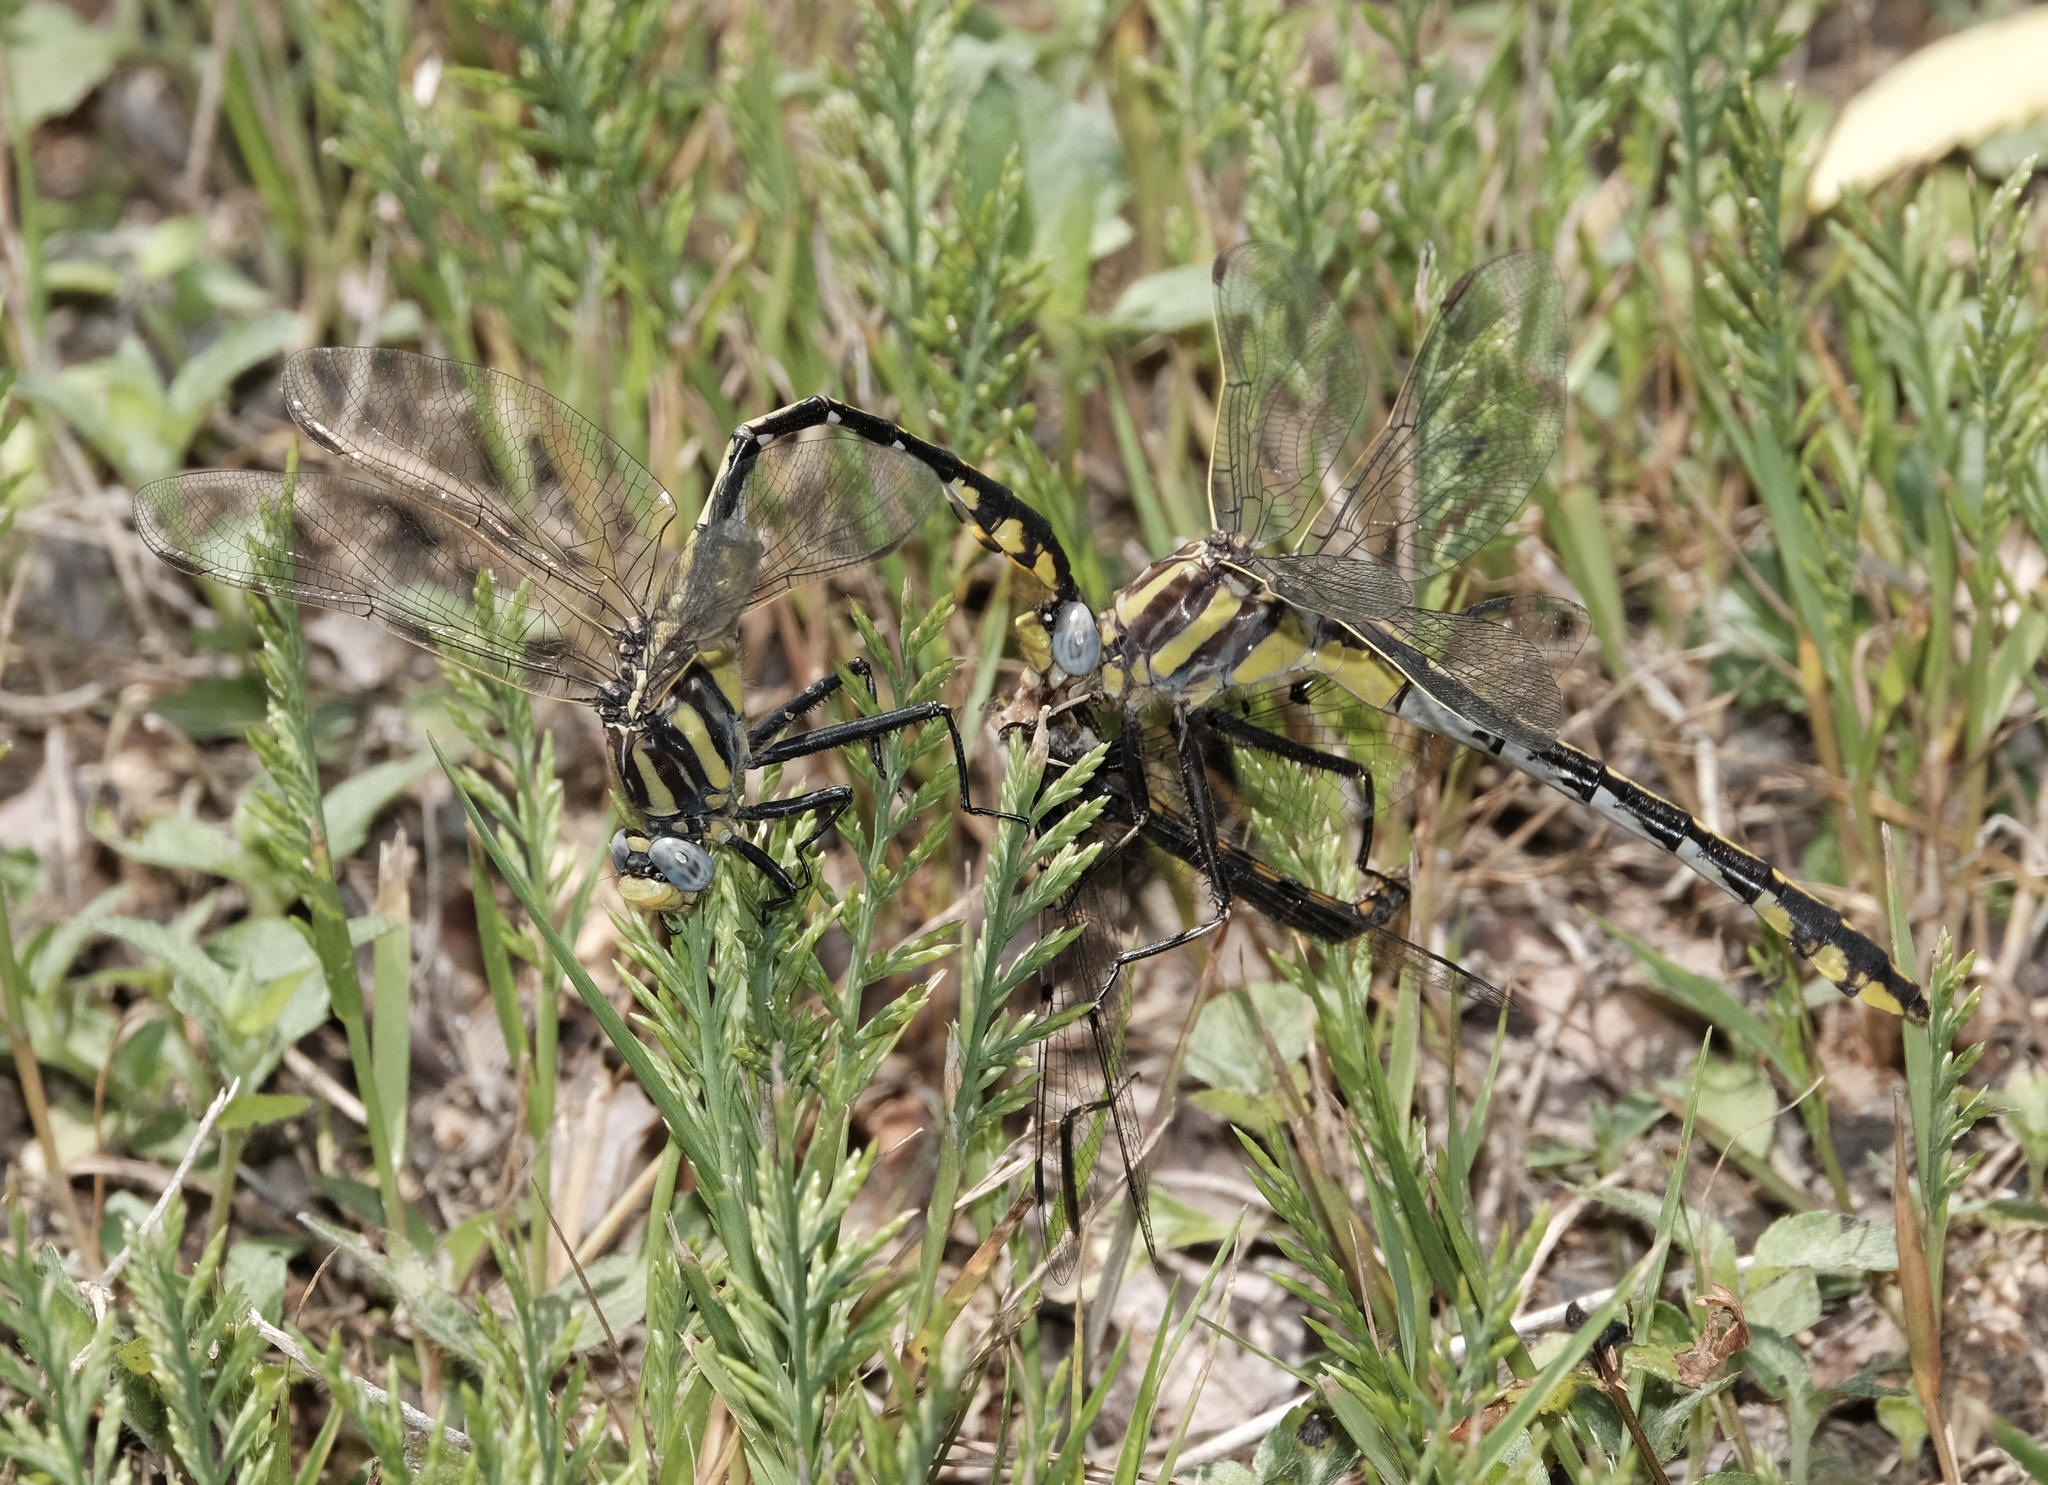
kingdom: Animalia
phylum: Arthropoda
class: Insecta
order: Odonata
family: Gomphidae
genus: Gomphurus
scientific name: Gomphurus externus
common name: Plains clubtail
